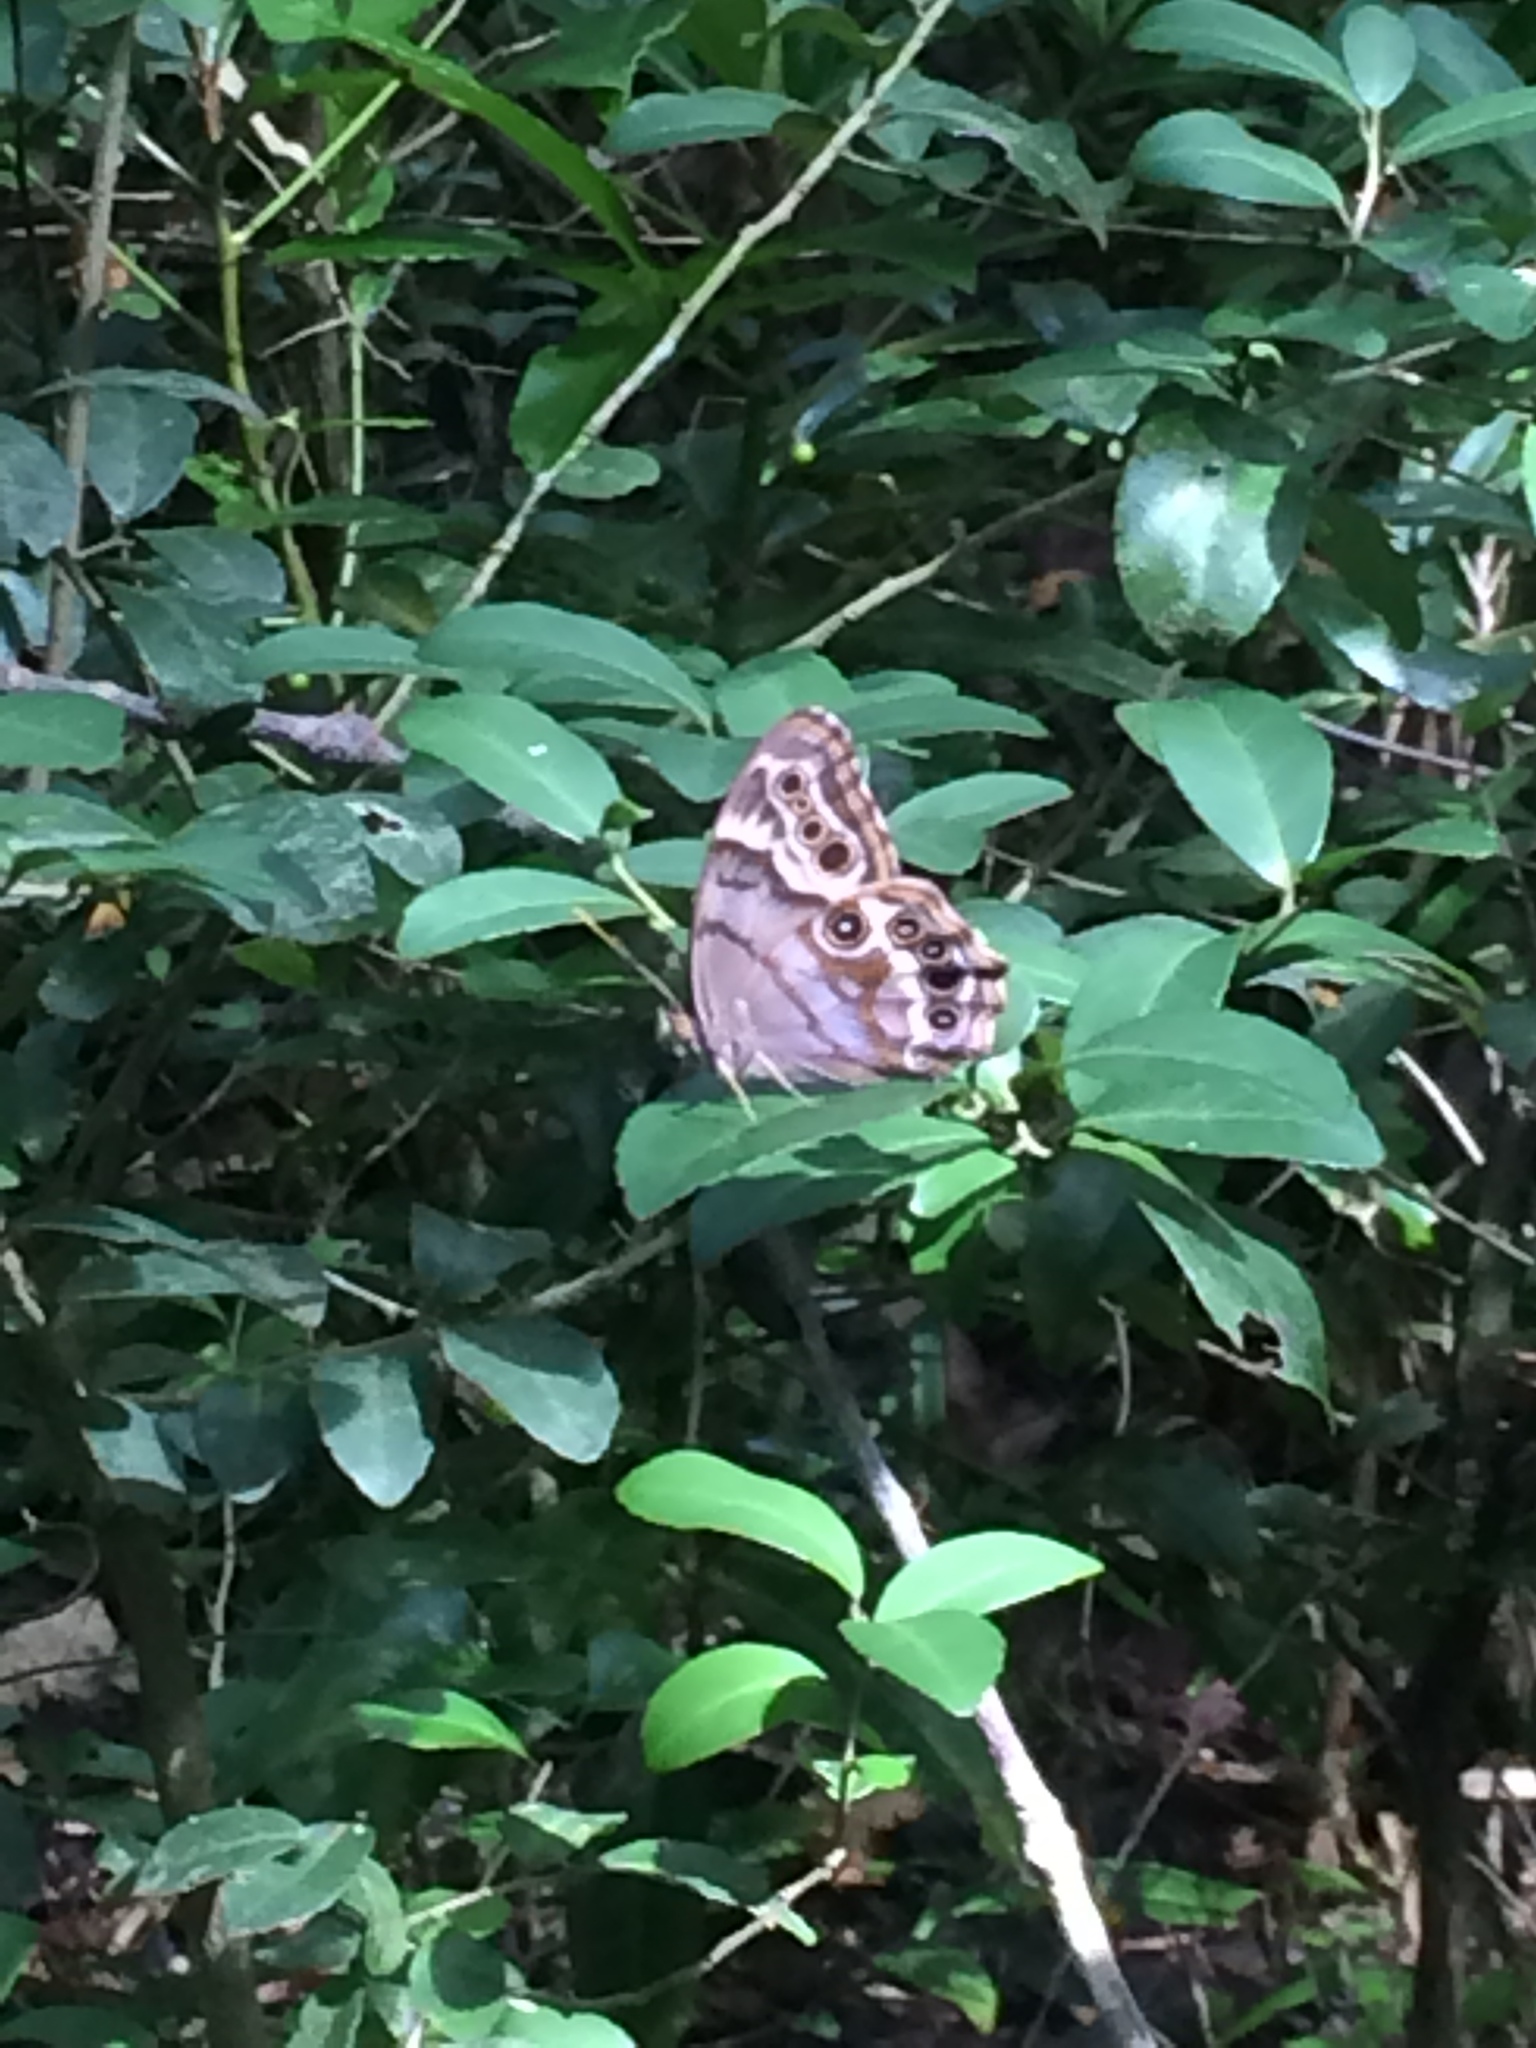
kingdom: Animalia
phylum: Arthropoda
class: Insecta
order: Lepidoptera
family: Nymphalidae
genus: Enodia
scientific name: Enodia portlandia
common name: Southern pearly-eye
